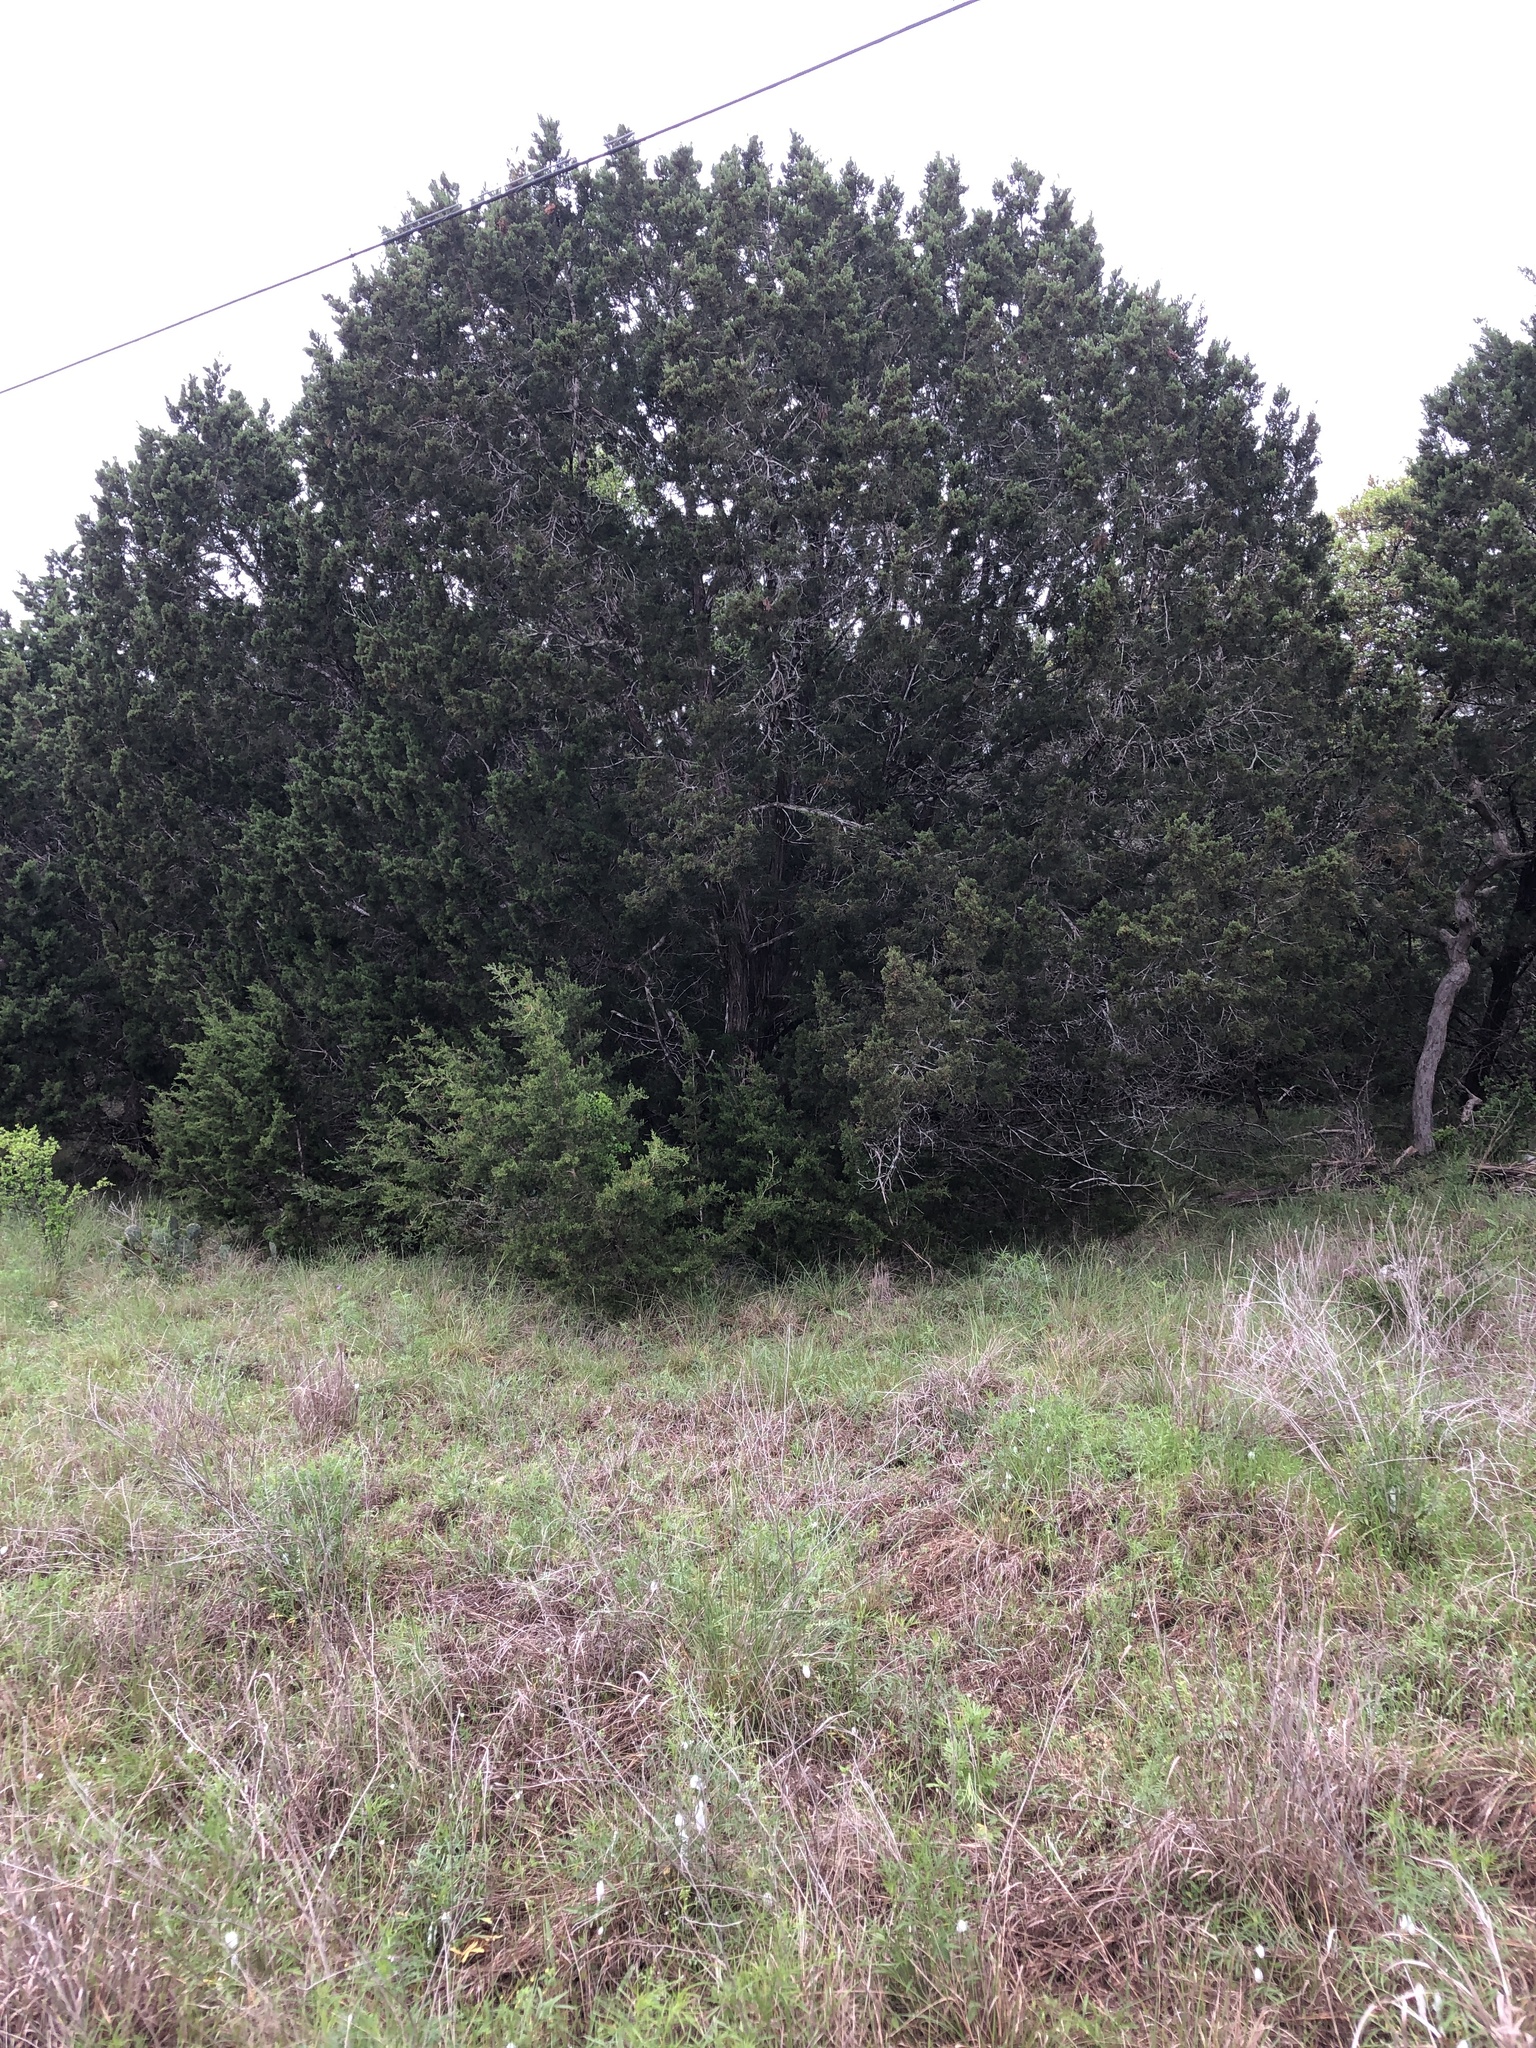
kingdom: Plantae
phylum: Tracheophyta
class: Pinopsida
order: Pinales
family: Cupressaceae
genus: Juniperus
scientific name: Juniperus ashei
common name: Mexican juniper
